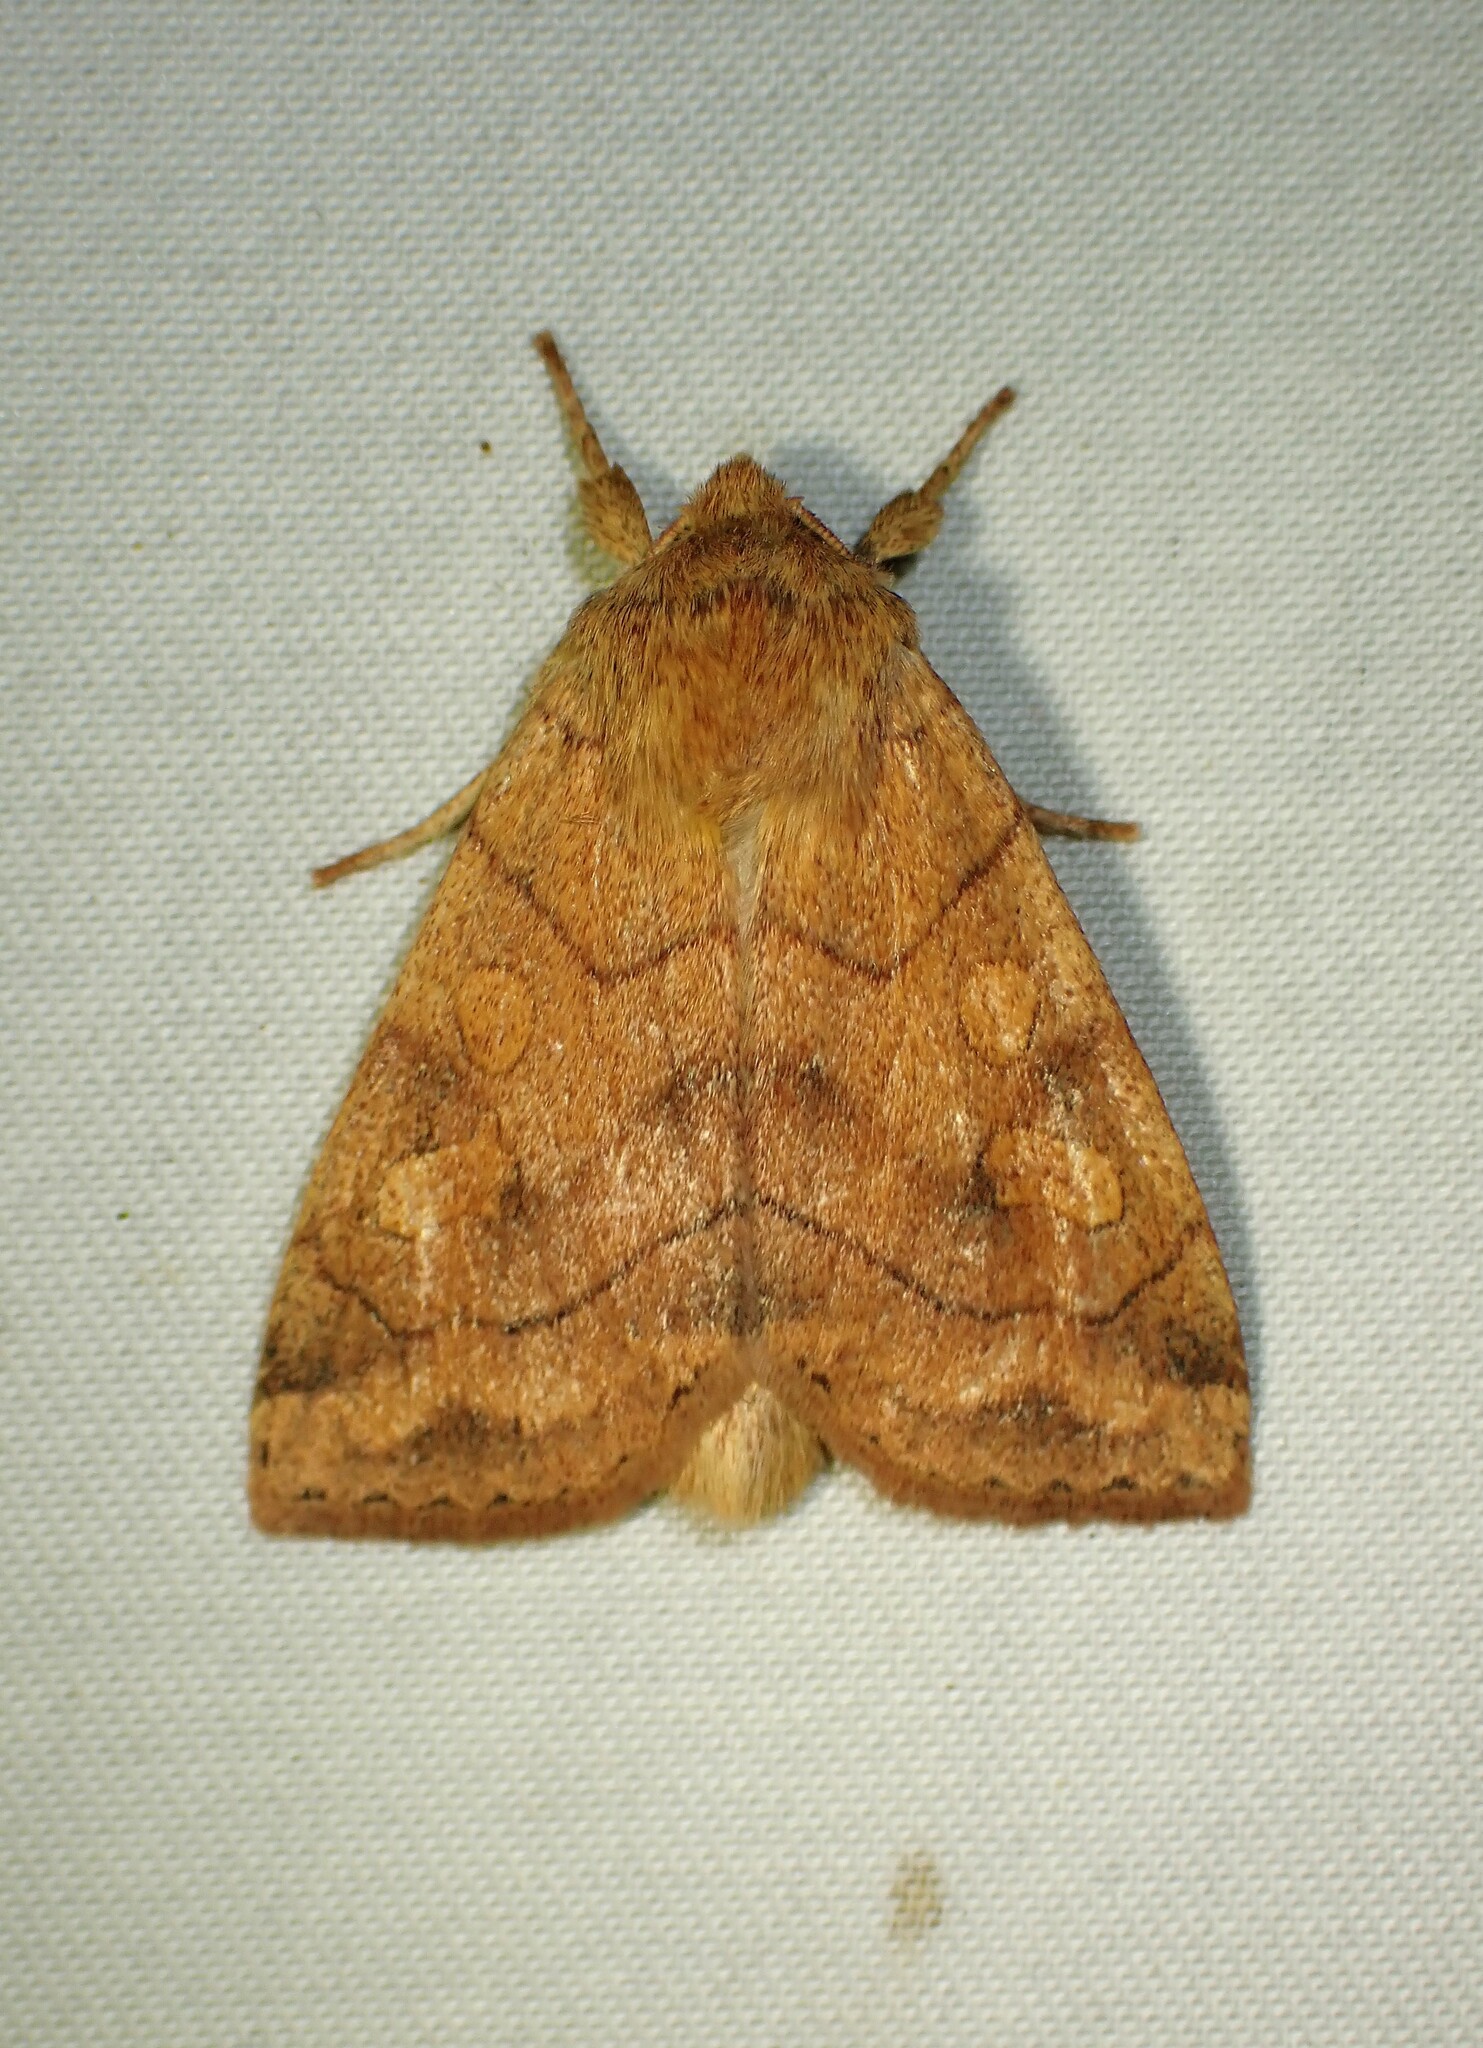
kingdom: Animalia
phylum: Arthropoda
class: Insecta
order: Lepidoptera
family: Noctuidae
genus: Enargia
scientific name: Enargia decolor
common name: Aspen twoleaf tier moth
